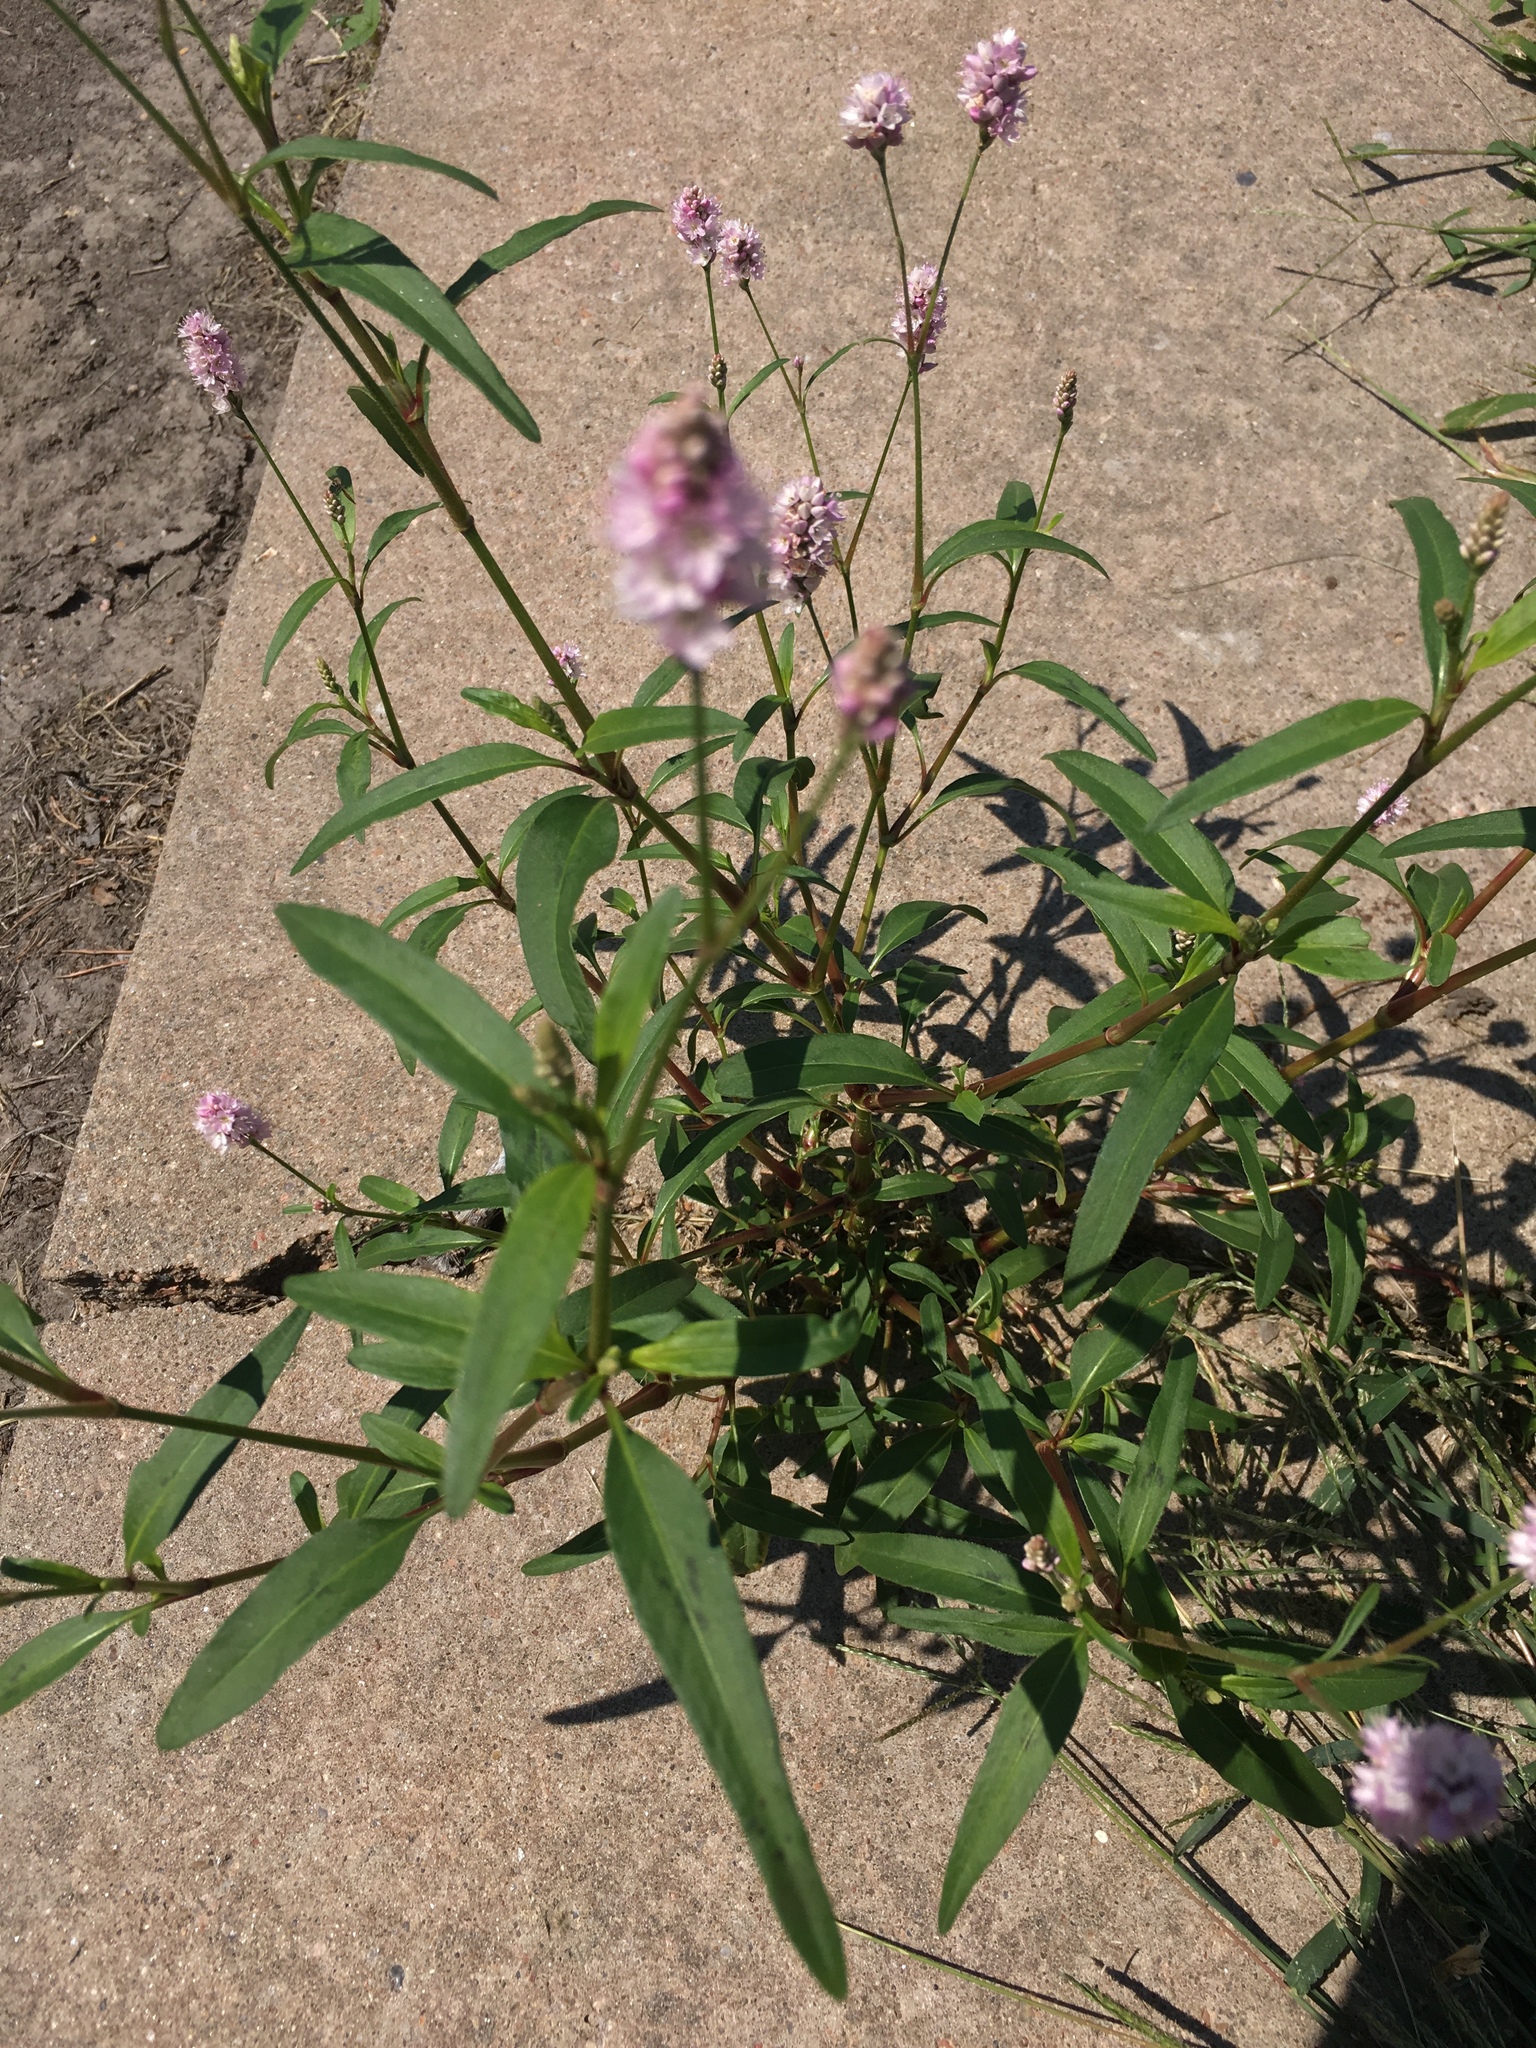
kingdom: Plantae
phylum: Tracheophyta
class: Magnoliopsida
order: Caryophyllales
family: Polygonaceae
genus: Persicaria
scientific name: Persicaria pensylvanica
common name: Pinkweed
